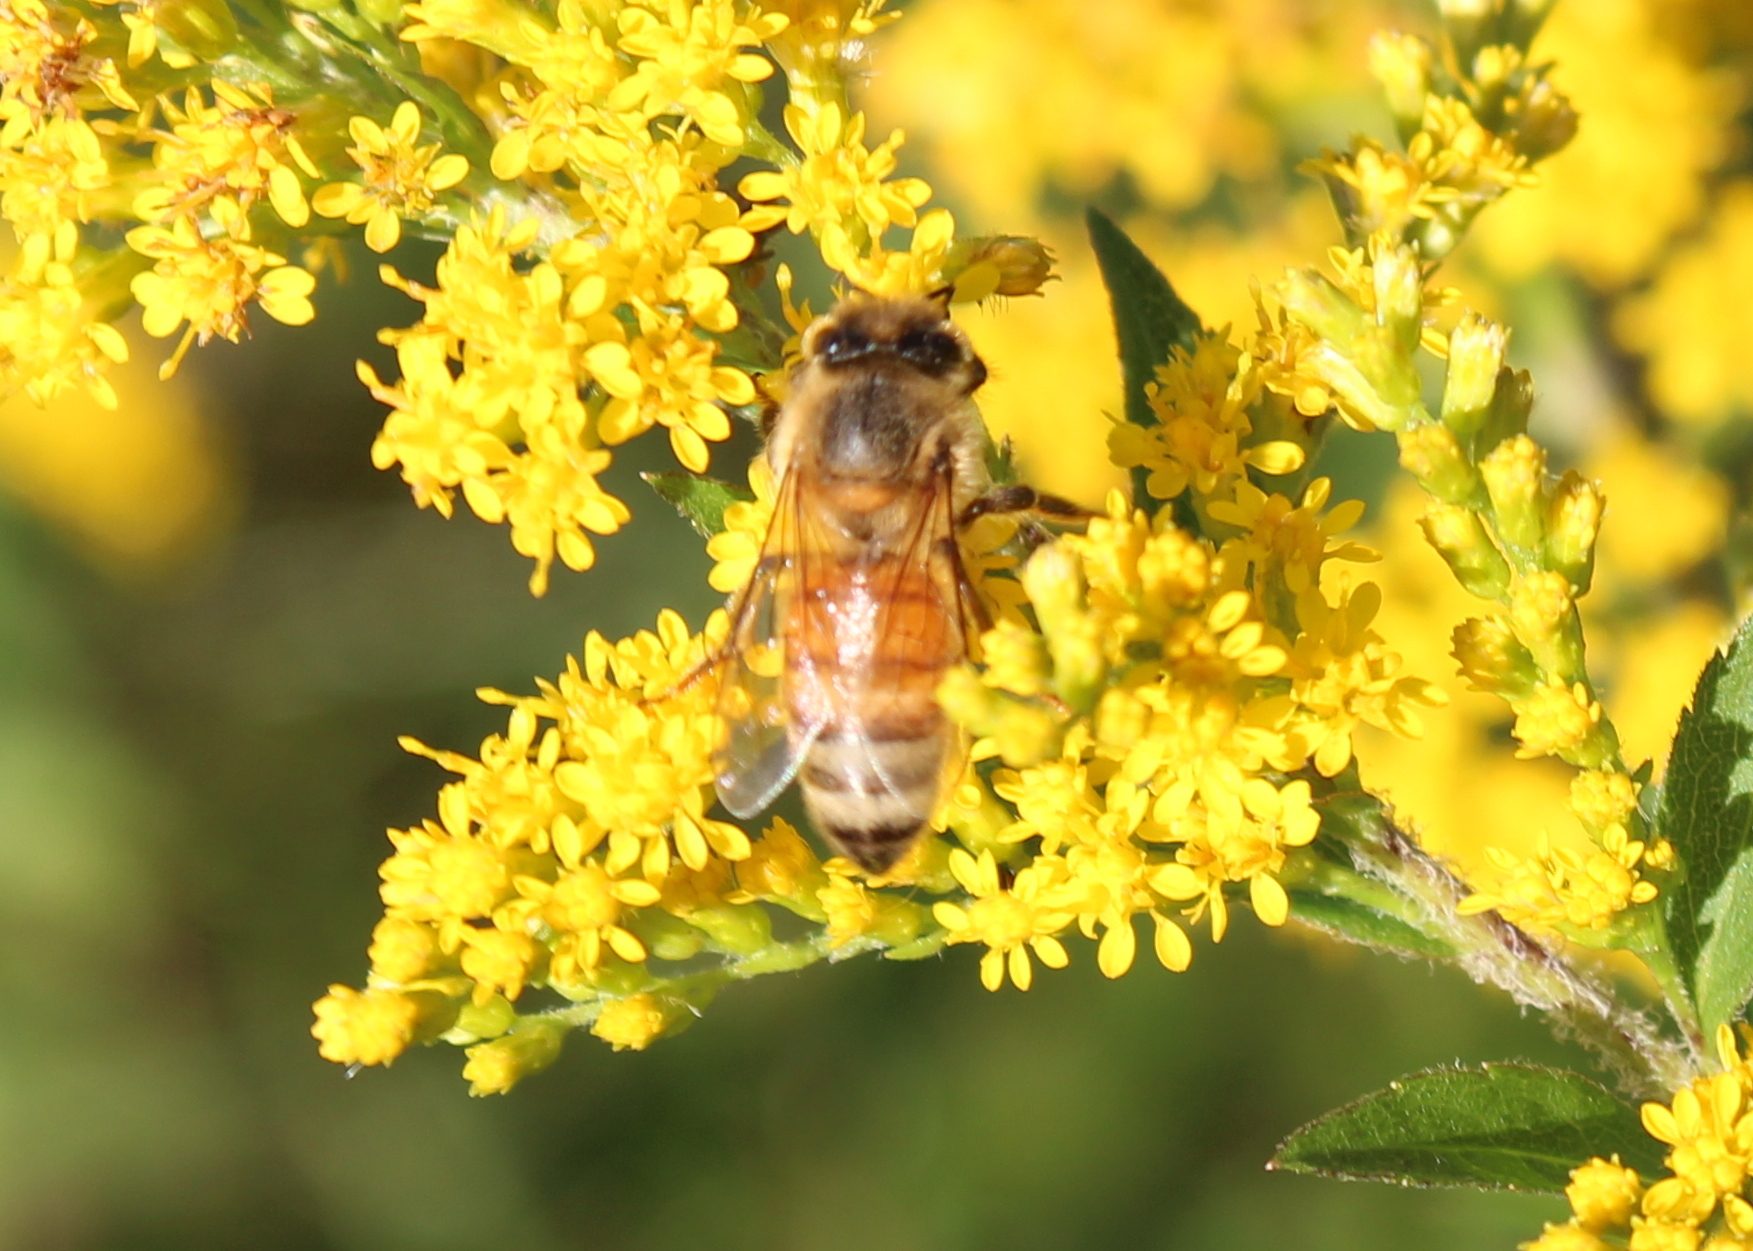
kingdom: Animalia
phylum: Arthropoda
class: Insecta
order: Hymenoptera
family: Apidae
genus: Apis
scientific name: Apis mellifera
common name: Honey bee
